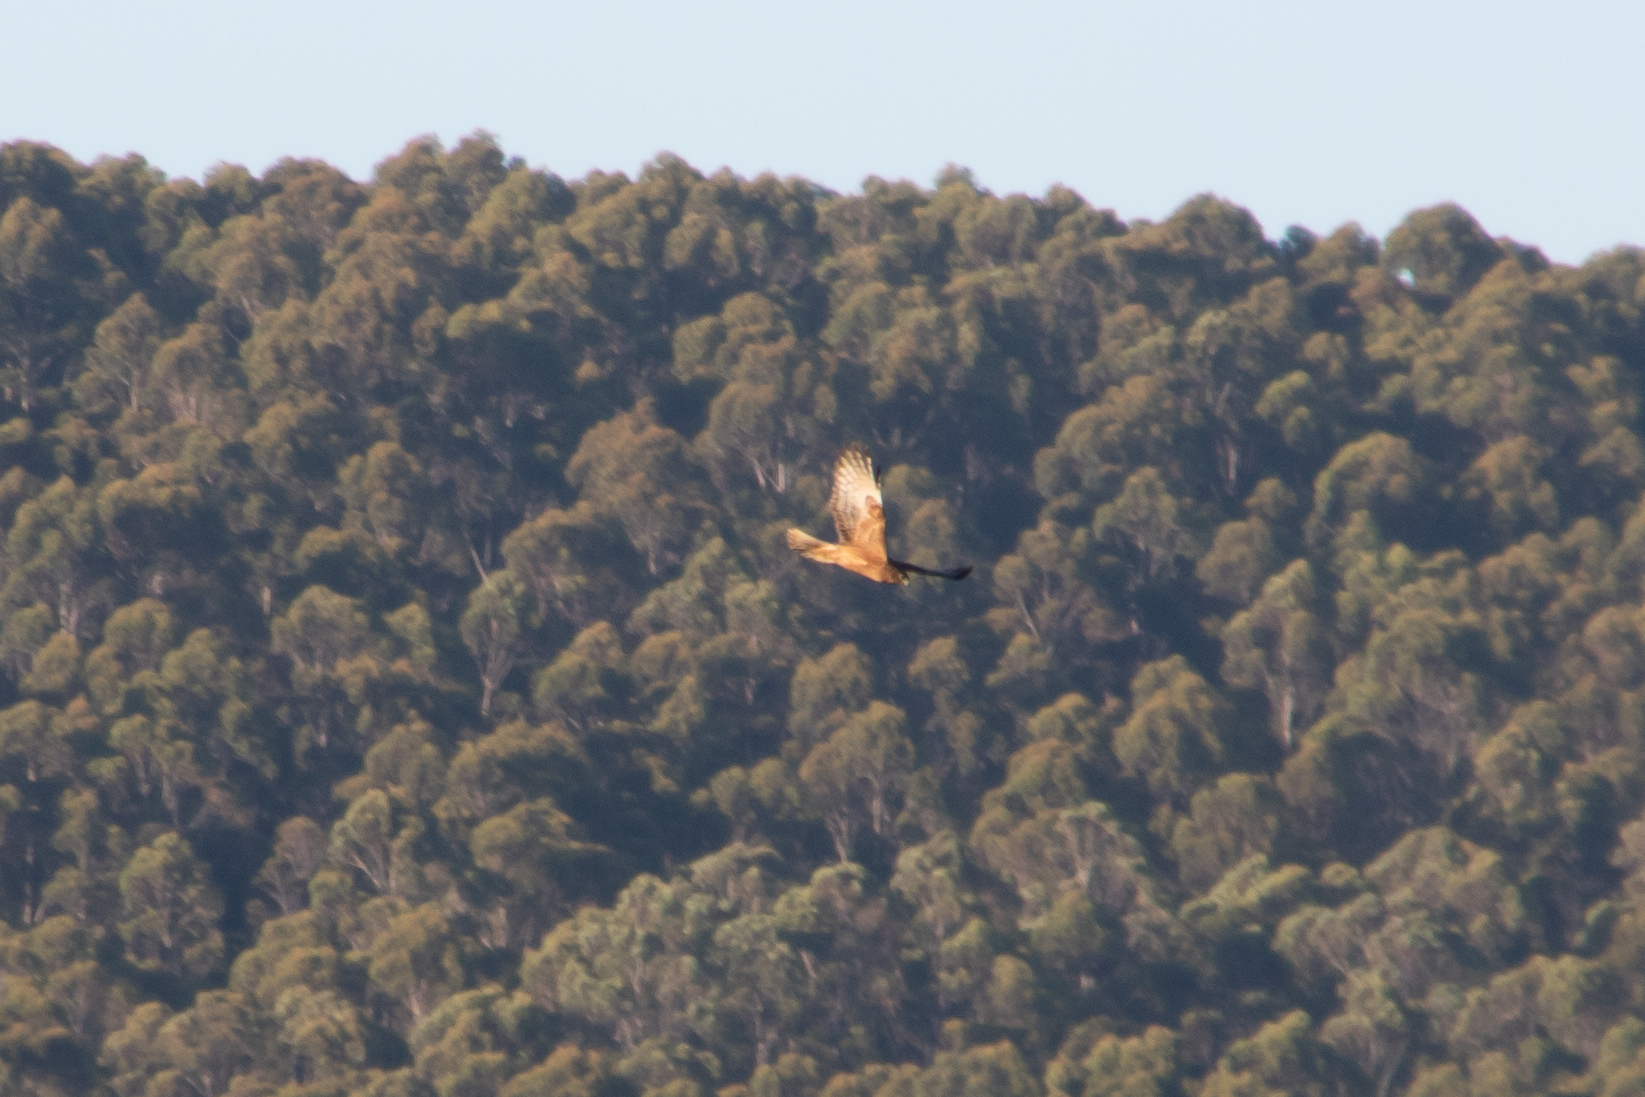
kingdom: Animalia
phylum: Chordata
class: Aves
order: Accipitriformes
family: Accipitridae
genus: Circus
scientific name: Circus approximans
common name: Swamp harrier
